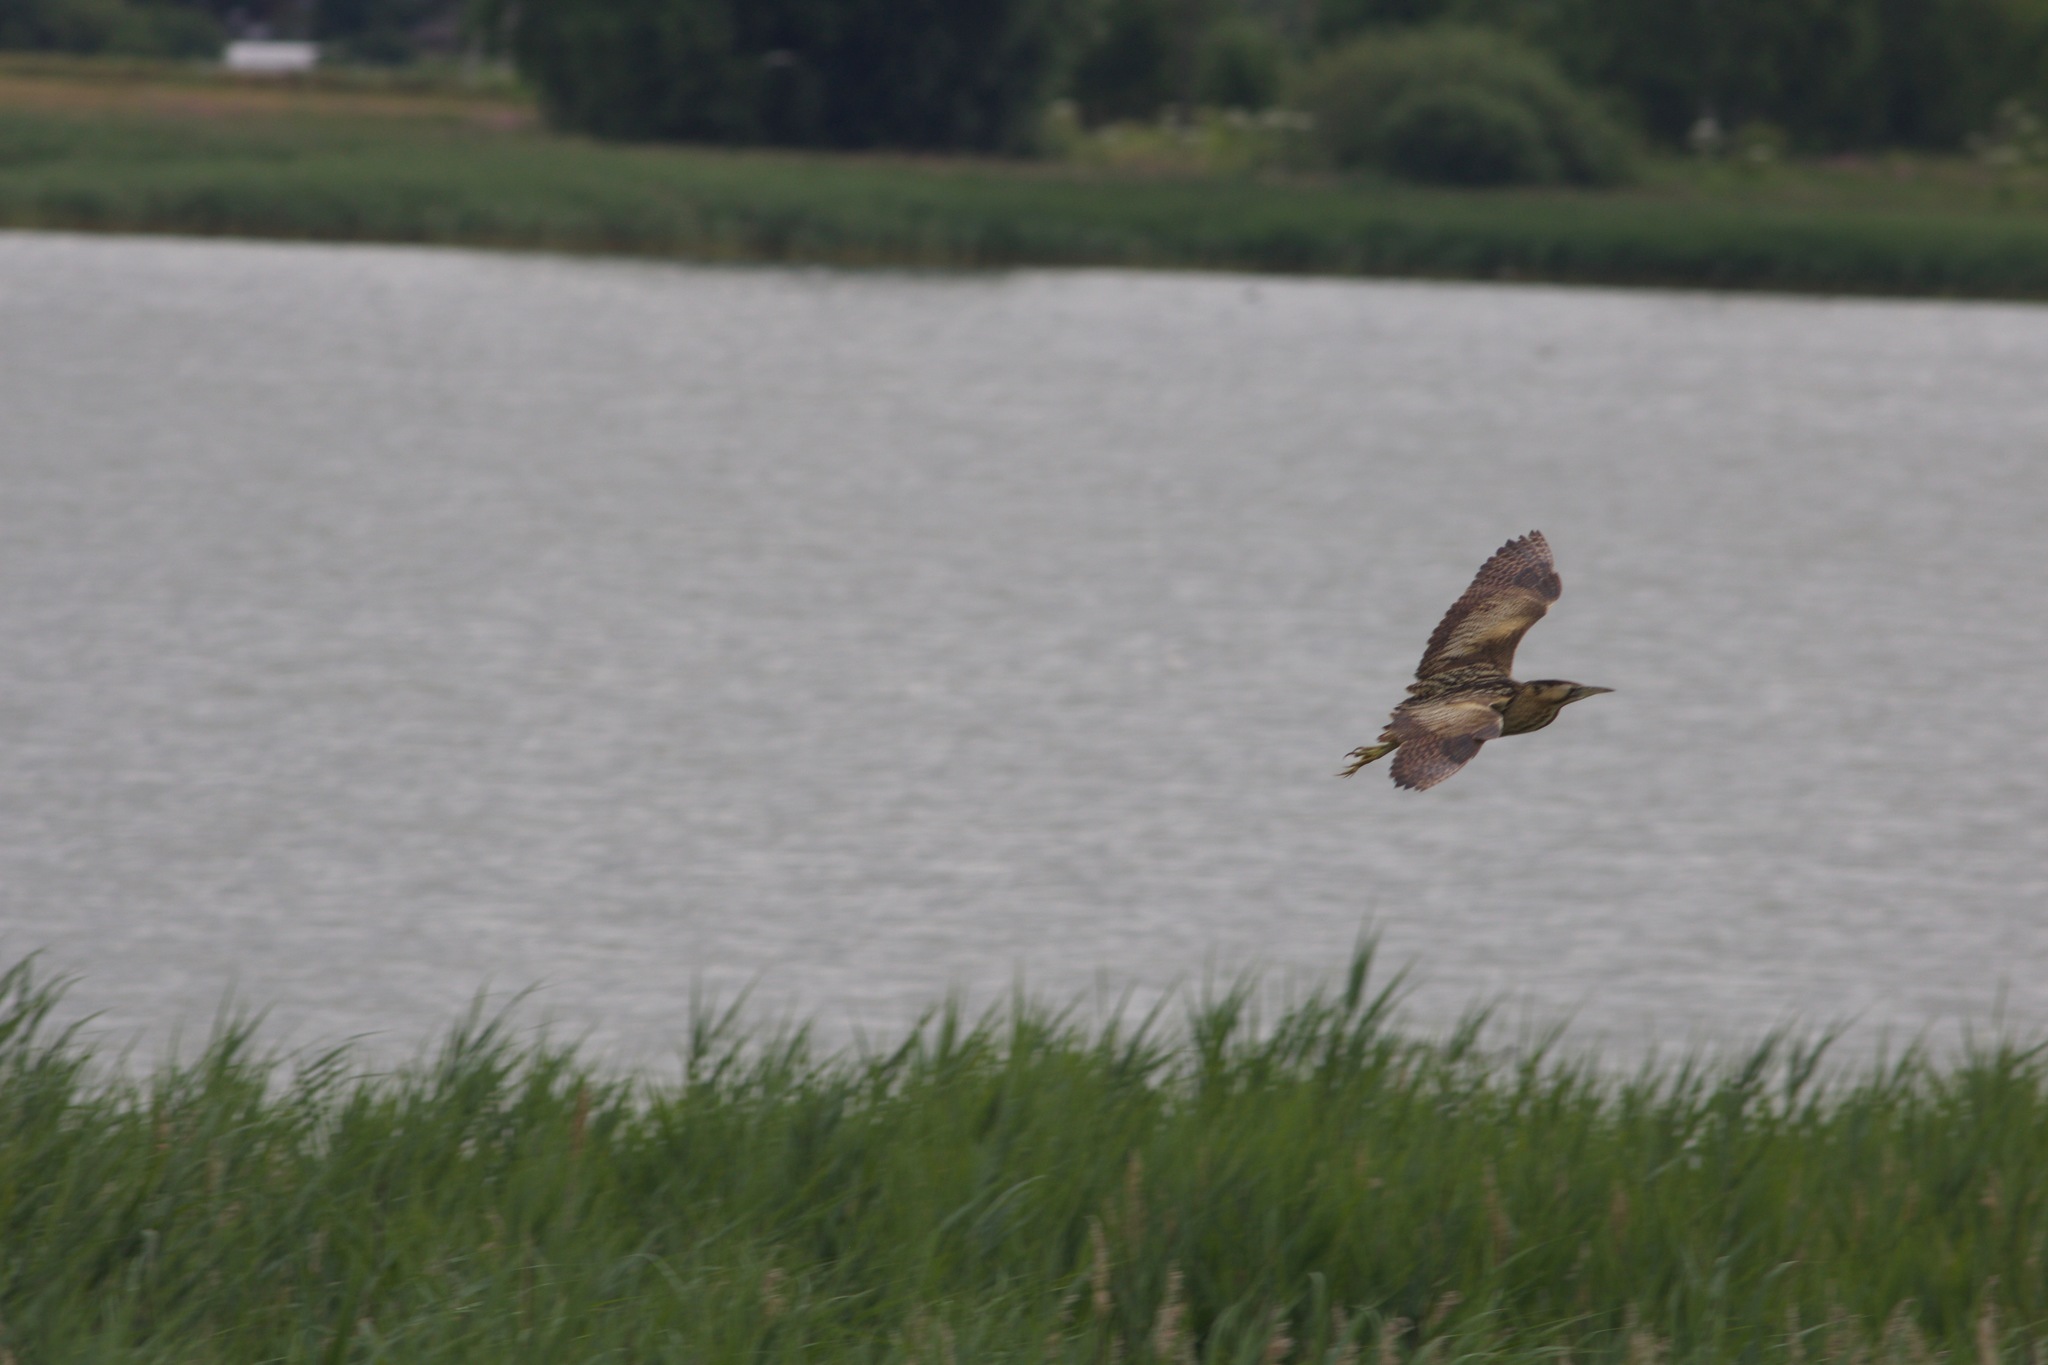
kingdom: Animalia
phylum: Chordata
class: Aves
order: Pelecaniformes
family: Ardeidae
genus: Botaurus
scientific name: Botaurus stellaris
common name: Eurasian bittern
